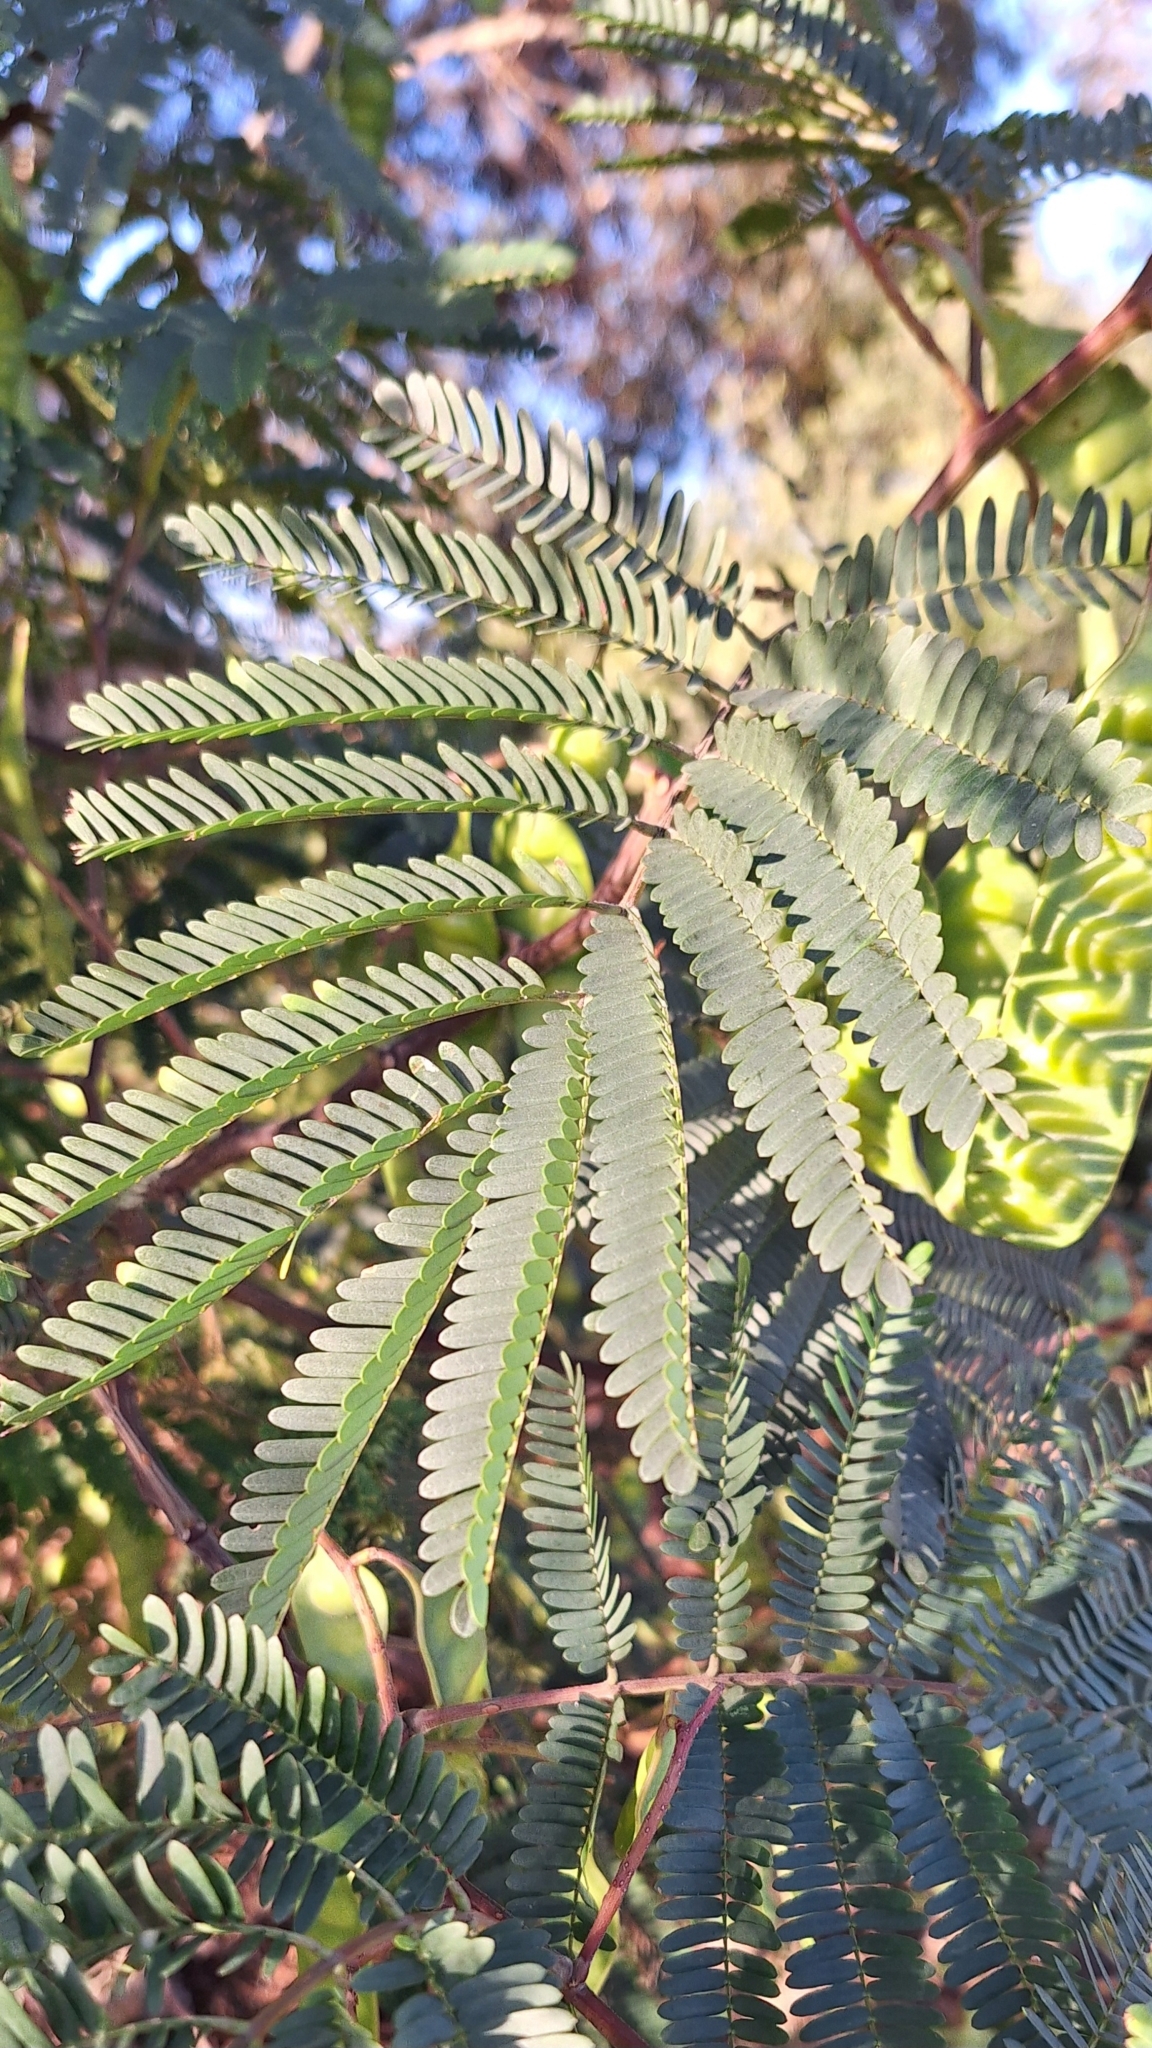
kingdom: Plantae
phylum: Tracheophyta
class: Magnoliopsida
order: Fabales
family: Fabaceae
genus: Paraserianthes
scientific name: Paraserianthes lophantha
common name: Plume albizia
